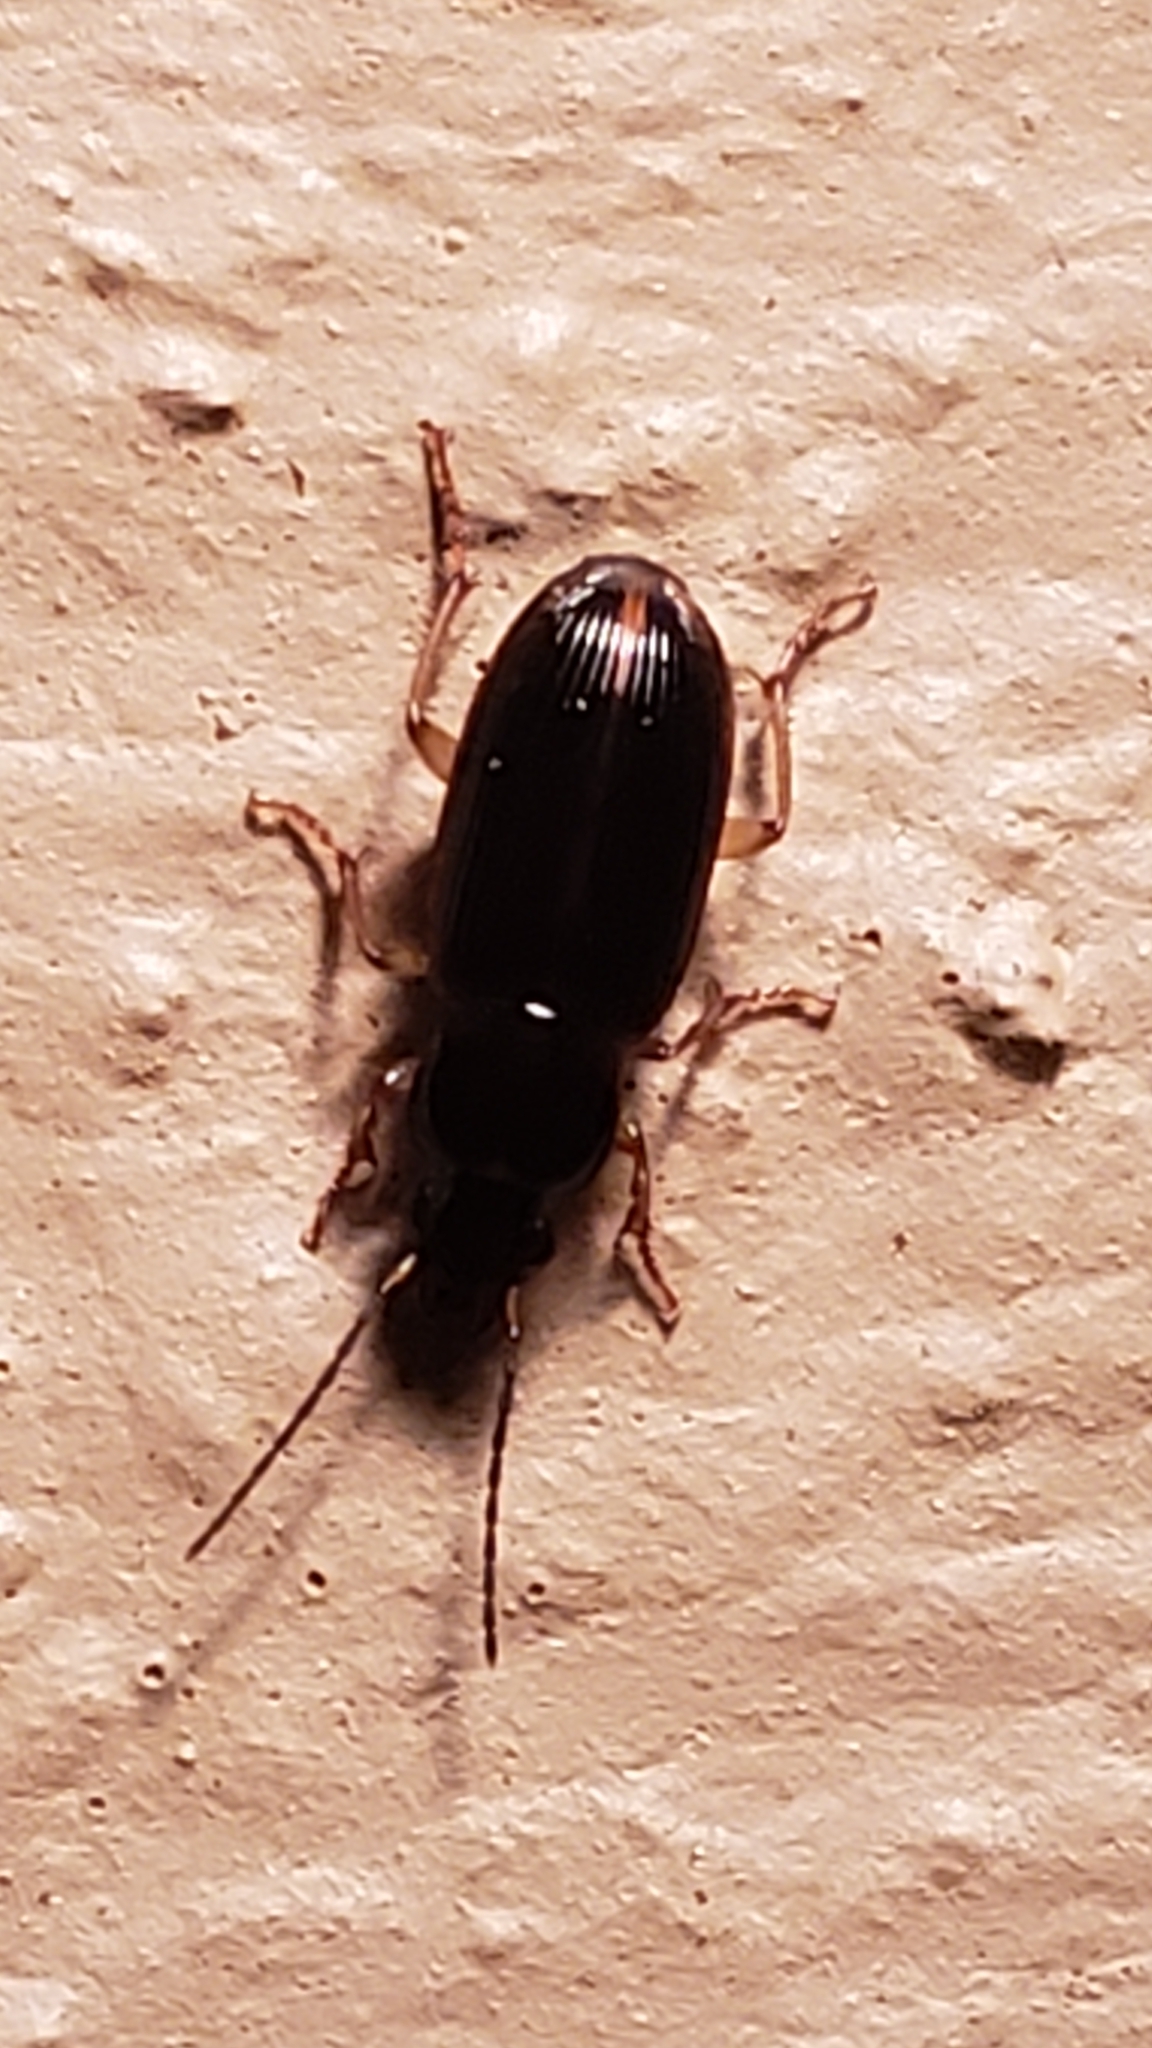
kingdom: Animalia
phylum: Arthropoda
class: Insecta
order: Coleoptera
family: Carabidae
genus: Stenolophus
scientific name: Stenolophus ochropezus
